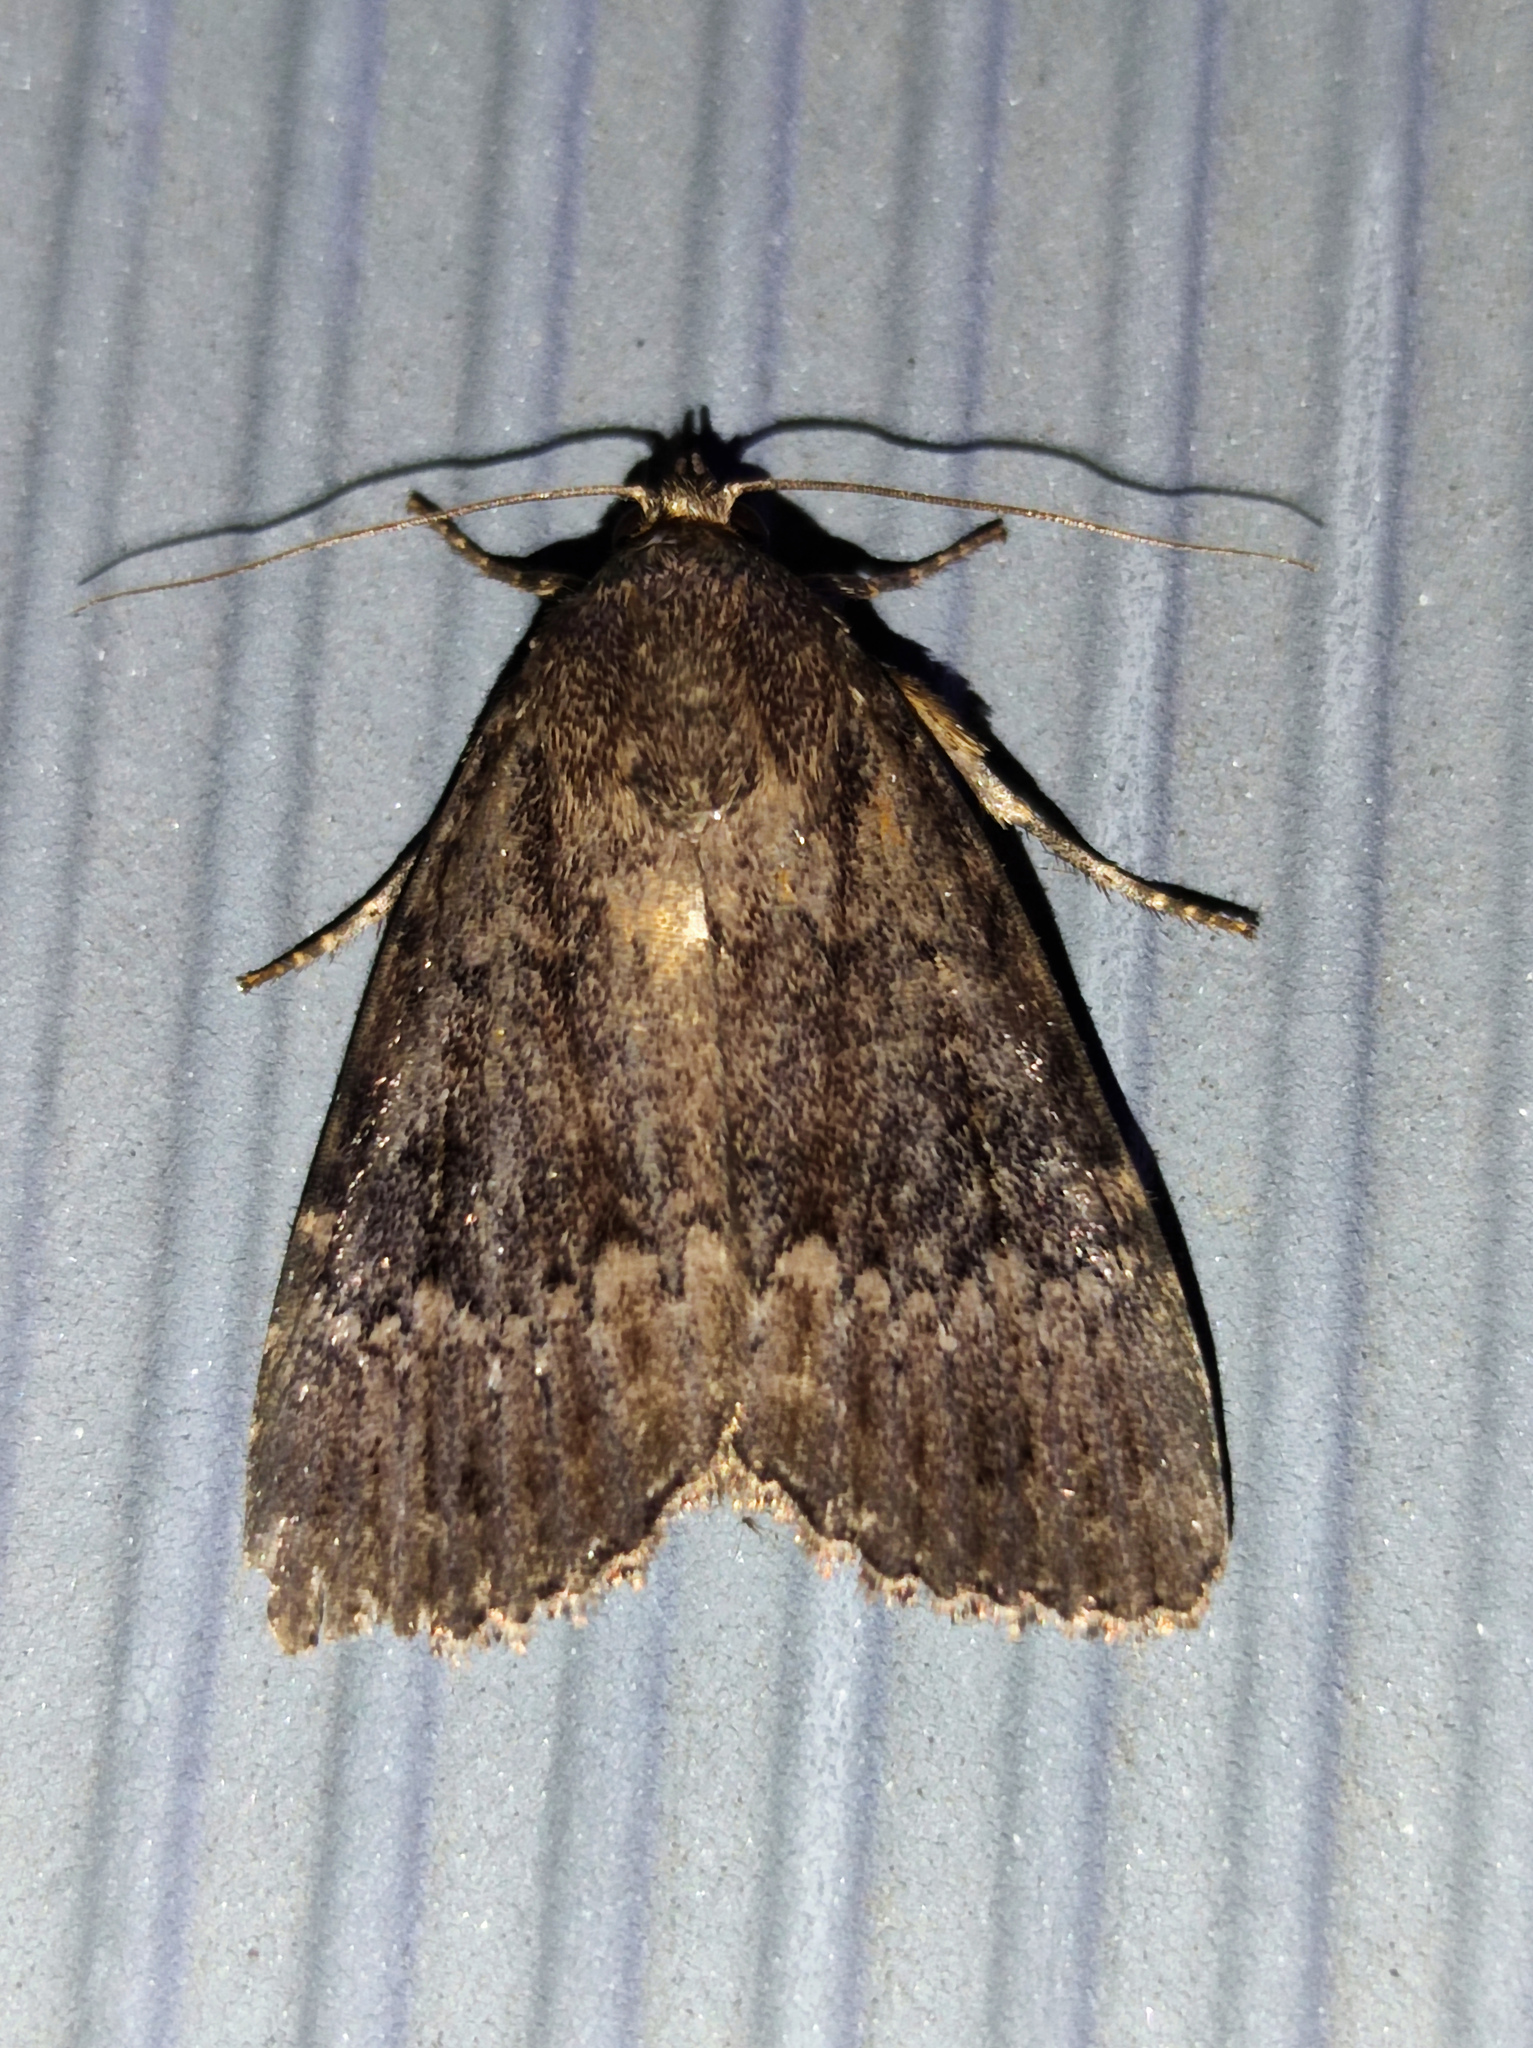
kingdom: Animalia
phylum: Arthropoda
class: Insecta
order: Lepidoptera
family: Noctuidae
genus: Amphipyra
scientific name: Amphipyra pyramidea
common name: Copper underwing
